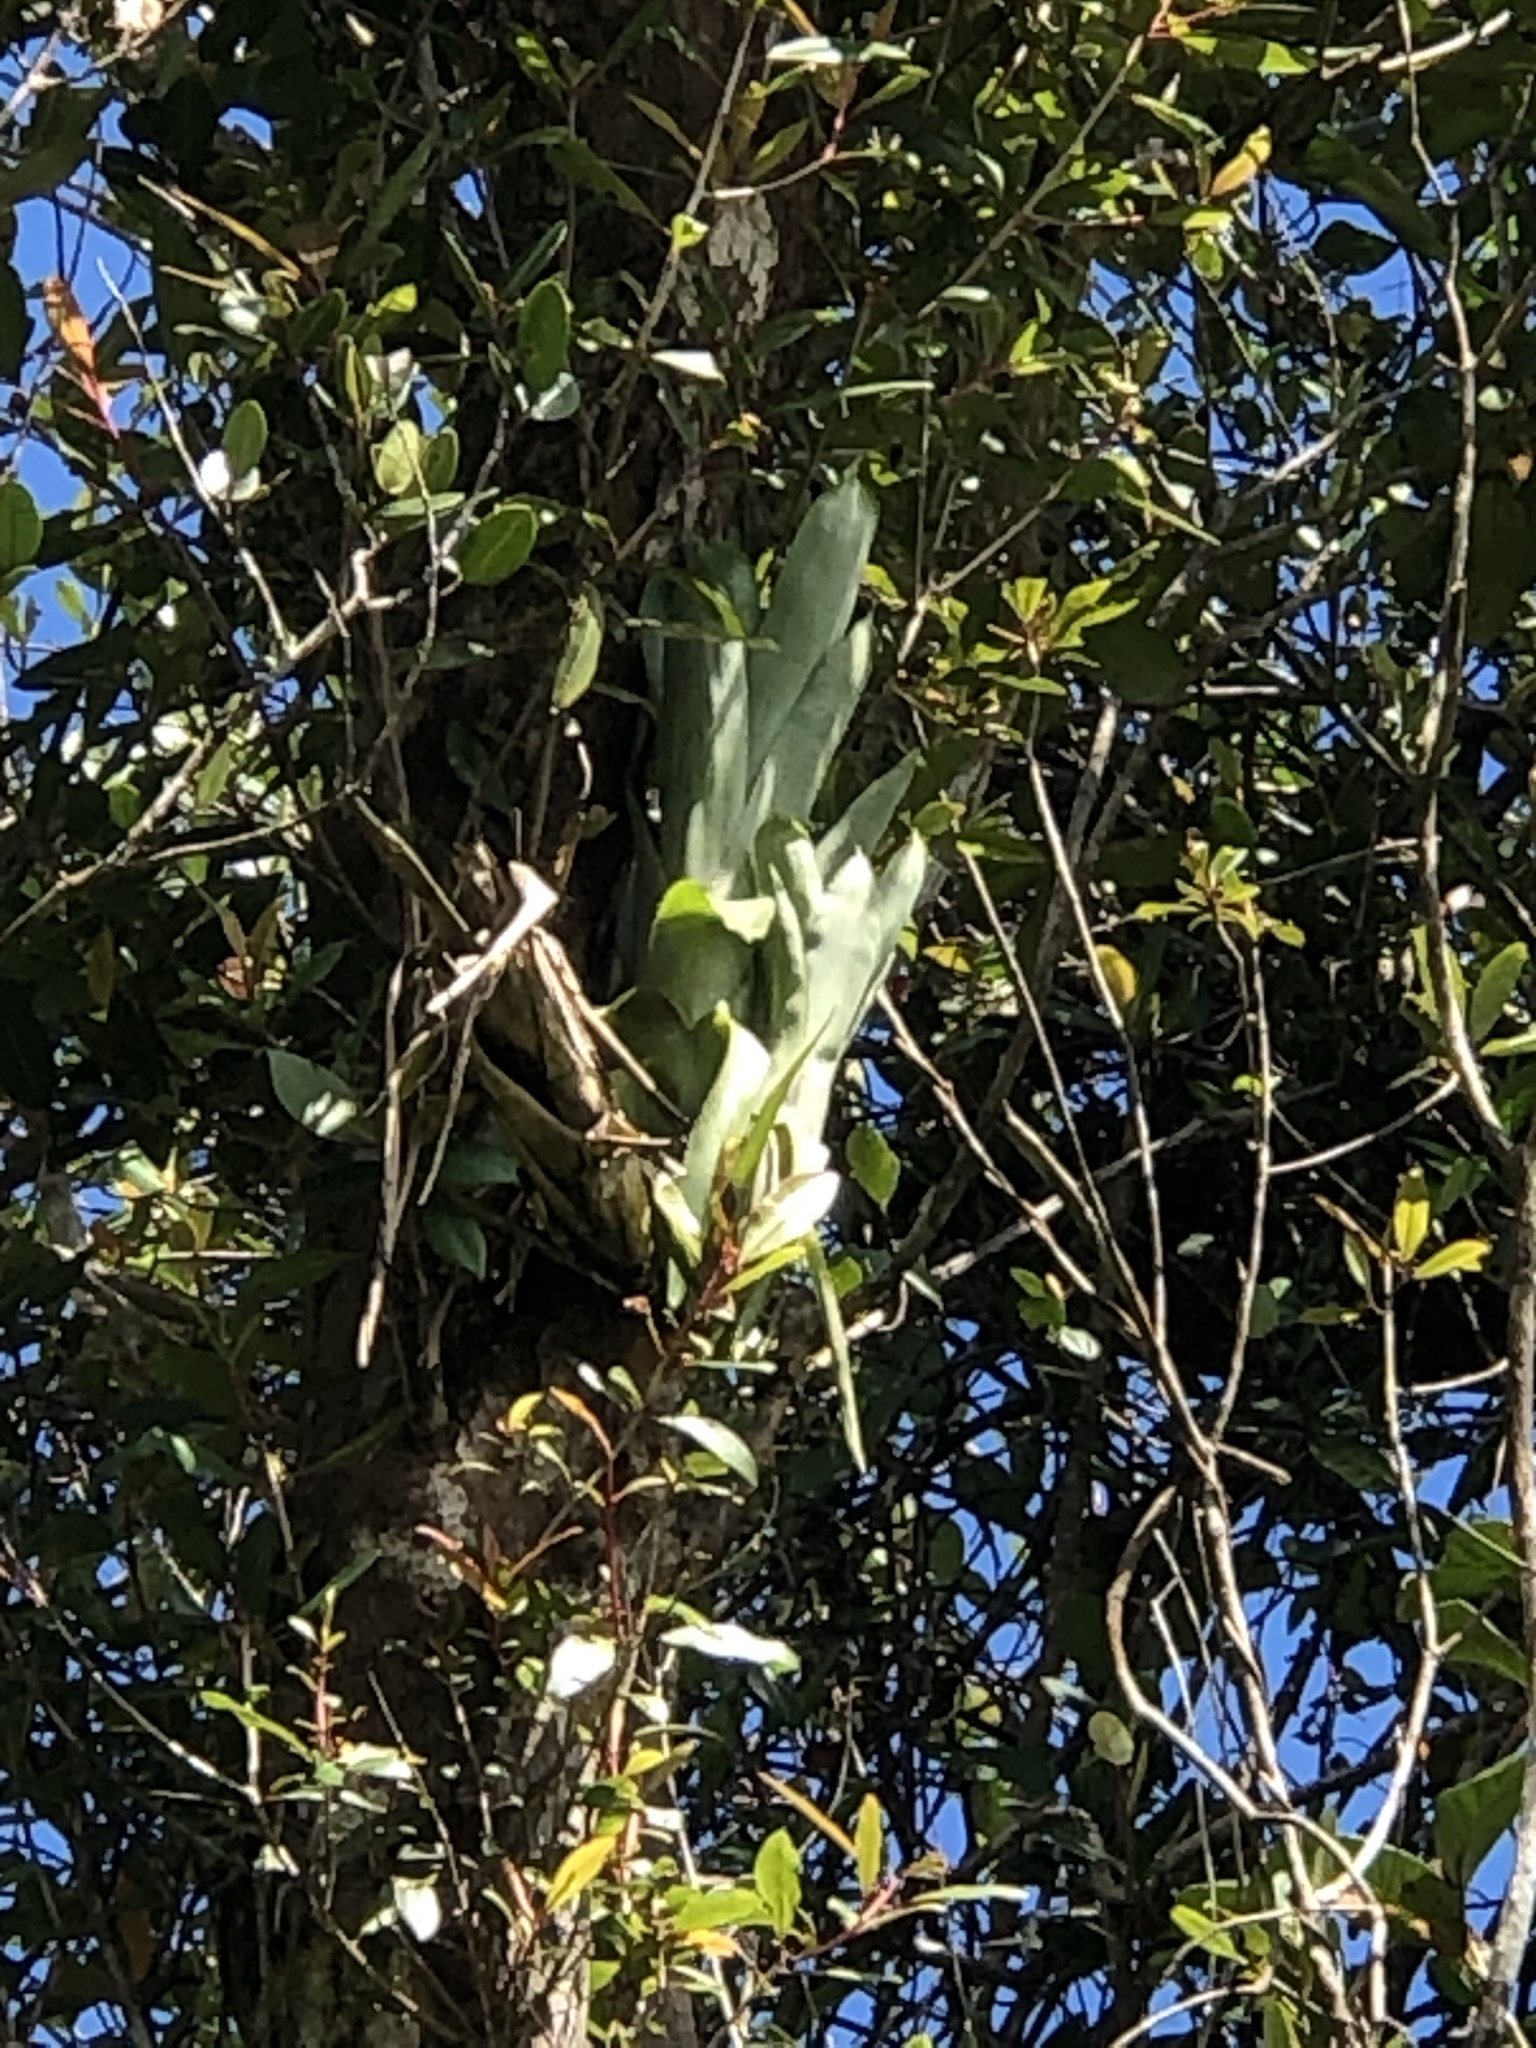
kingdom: Plantae
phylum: Tracheophyta
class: Liliopsida
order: Poales
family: Bromeliaceae
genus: Wittmackia
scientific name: Wittmackia portoricensis
